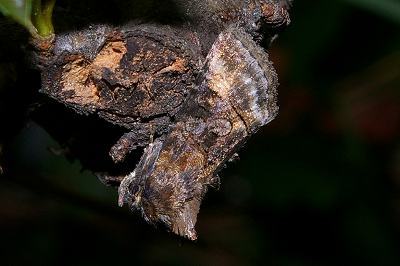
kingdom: Animalia
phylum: Arthropoda
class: Insecta
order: Lepidoptera
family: Noctuidae
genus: Abrostola
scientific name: Abrostola abrostolina
